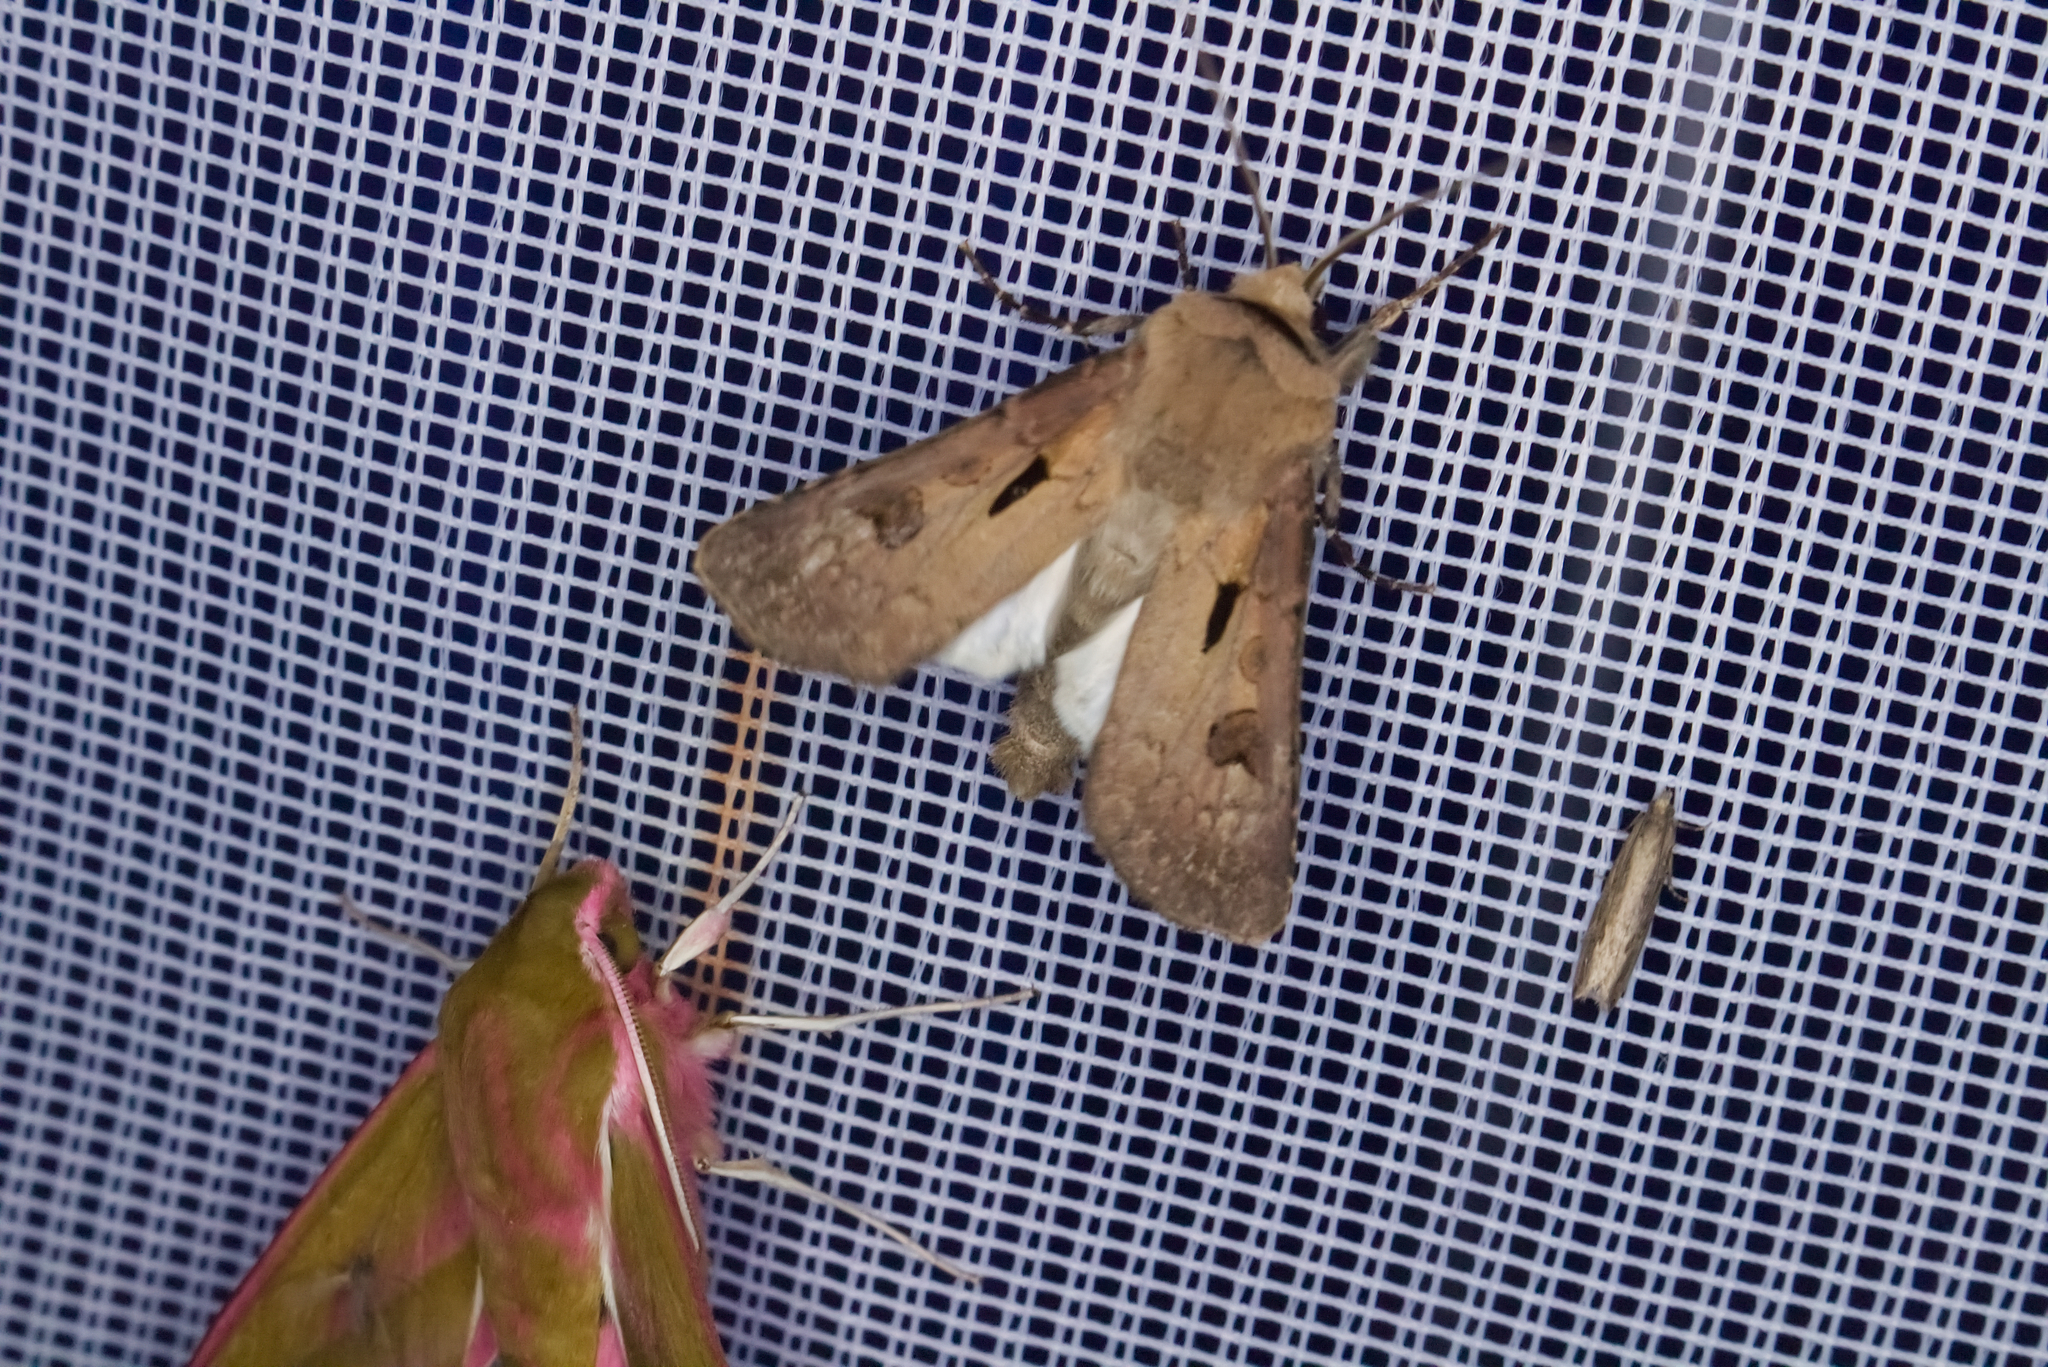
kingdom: Animalia
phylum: Arthropoda
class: Insecta
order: Lepidoptera
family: Noctuidae
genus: Agrotis
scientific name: Agrotis exclamationis
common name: Heart and dart
